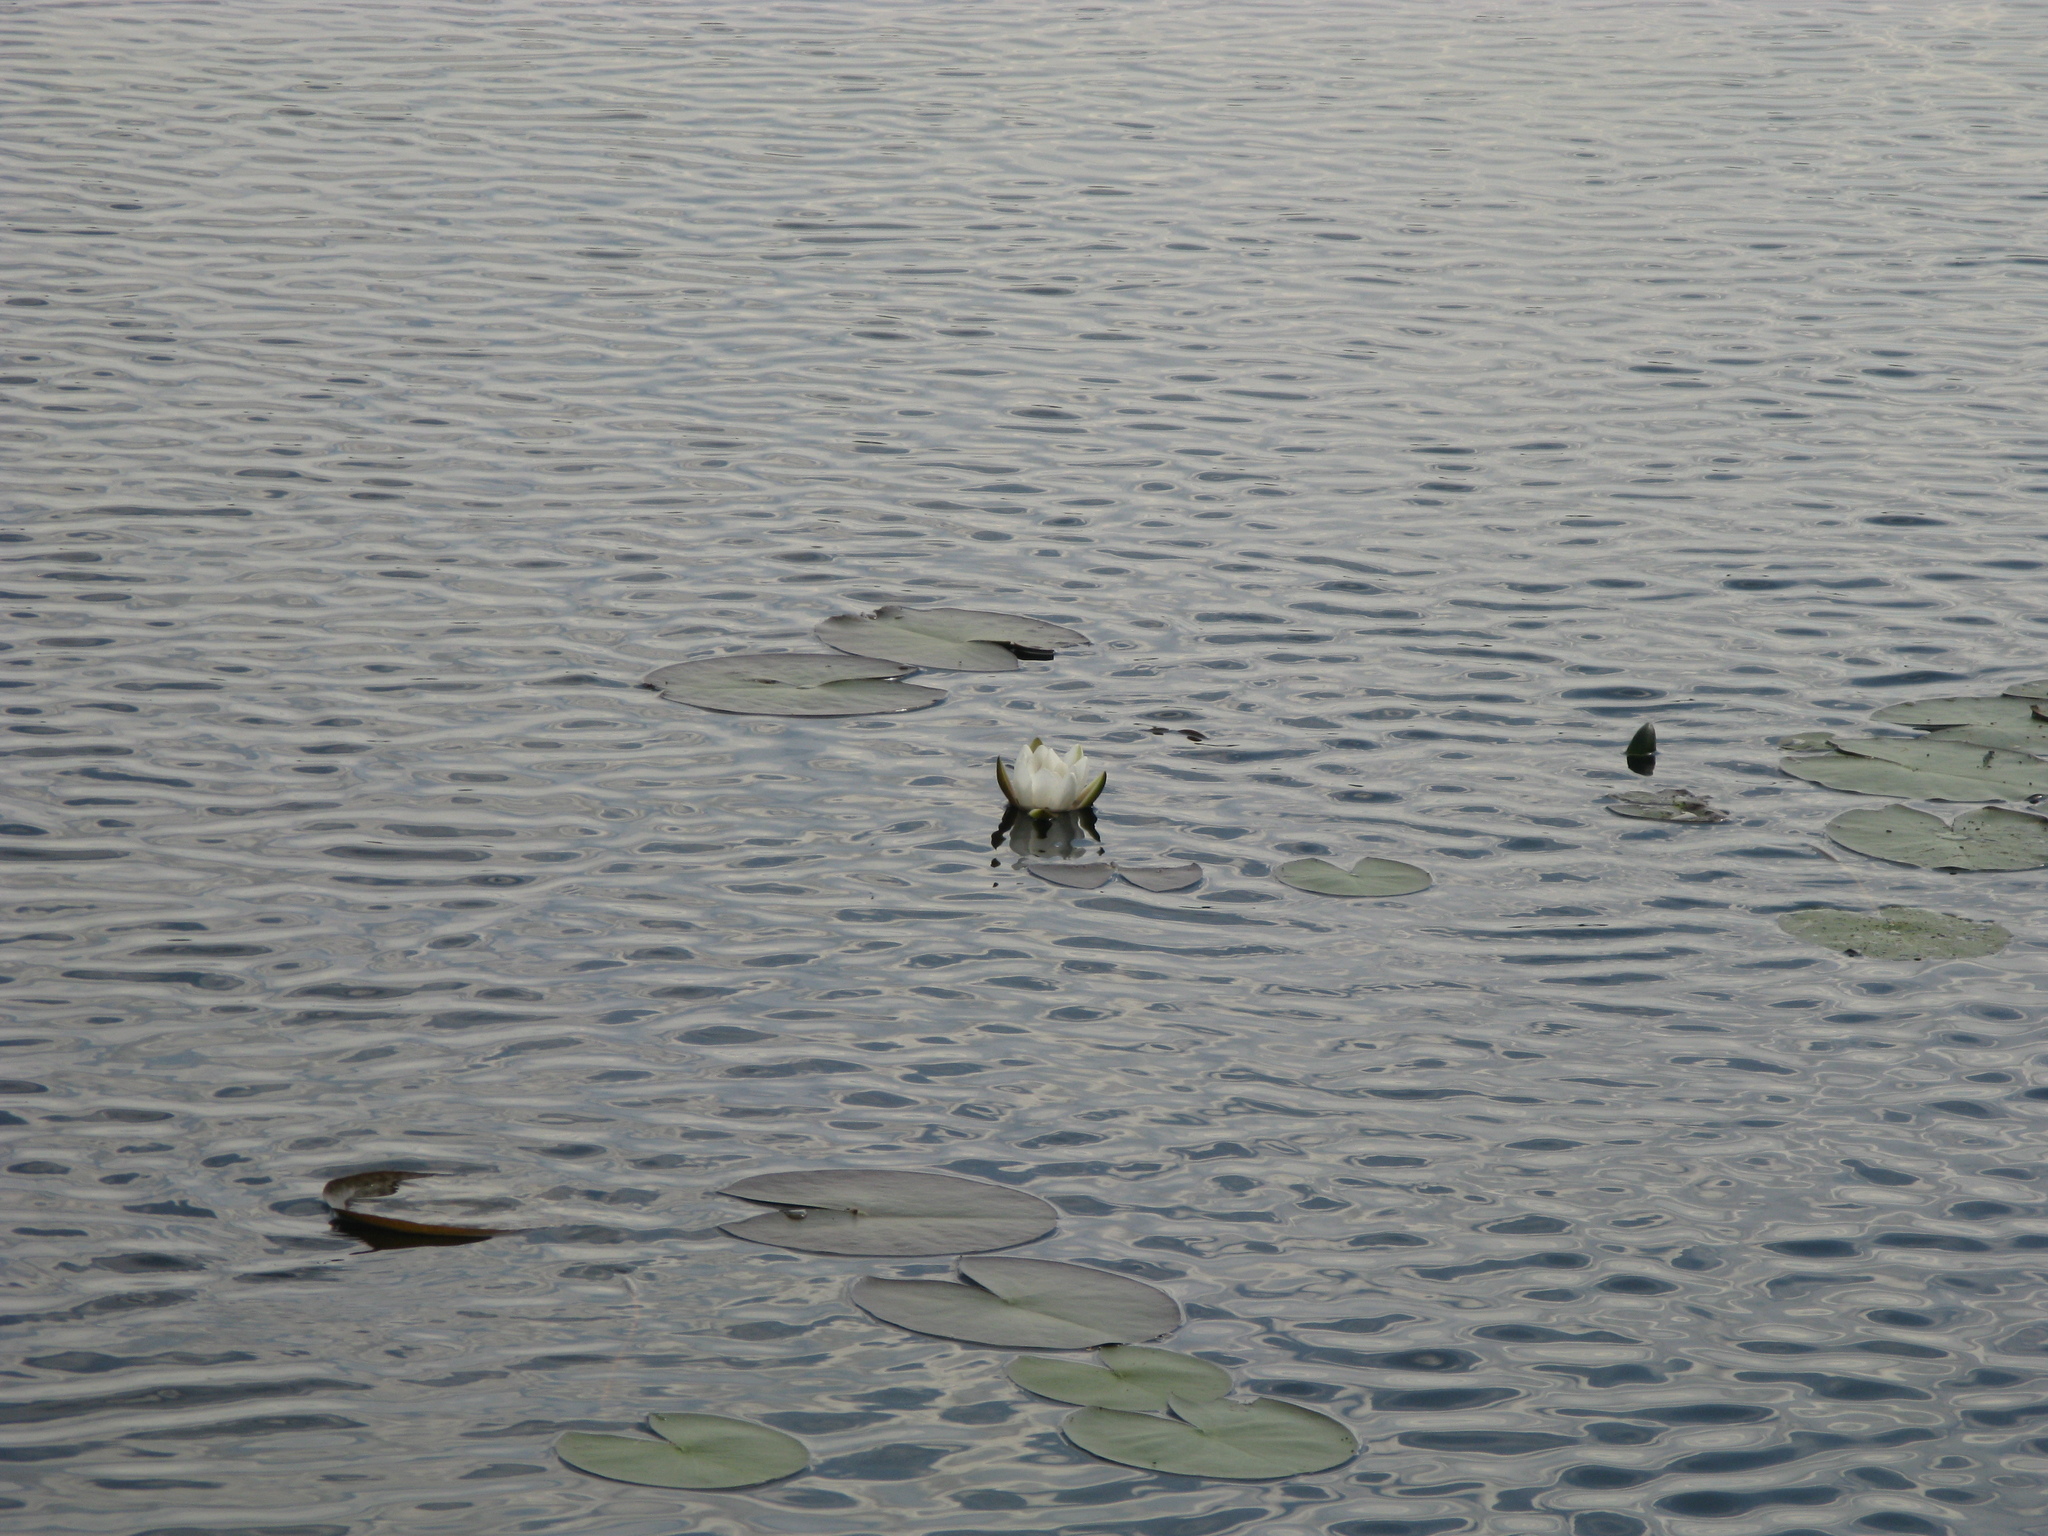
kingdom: Plantae
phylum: Tracheophyta
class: Magnoliopsida
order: Nymphaeales
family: Nymphaeaceae
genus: Nymphaea
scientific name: Nymphaea alba
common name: White water-lily
